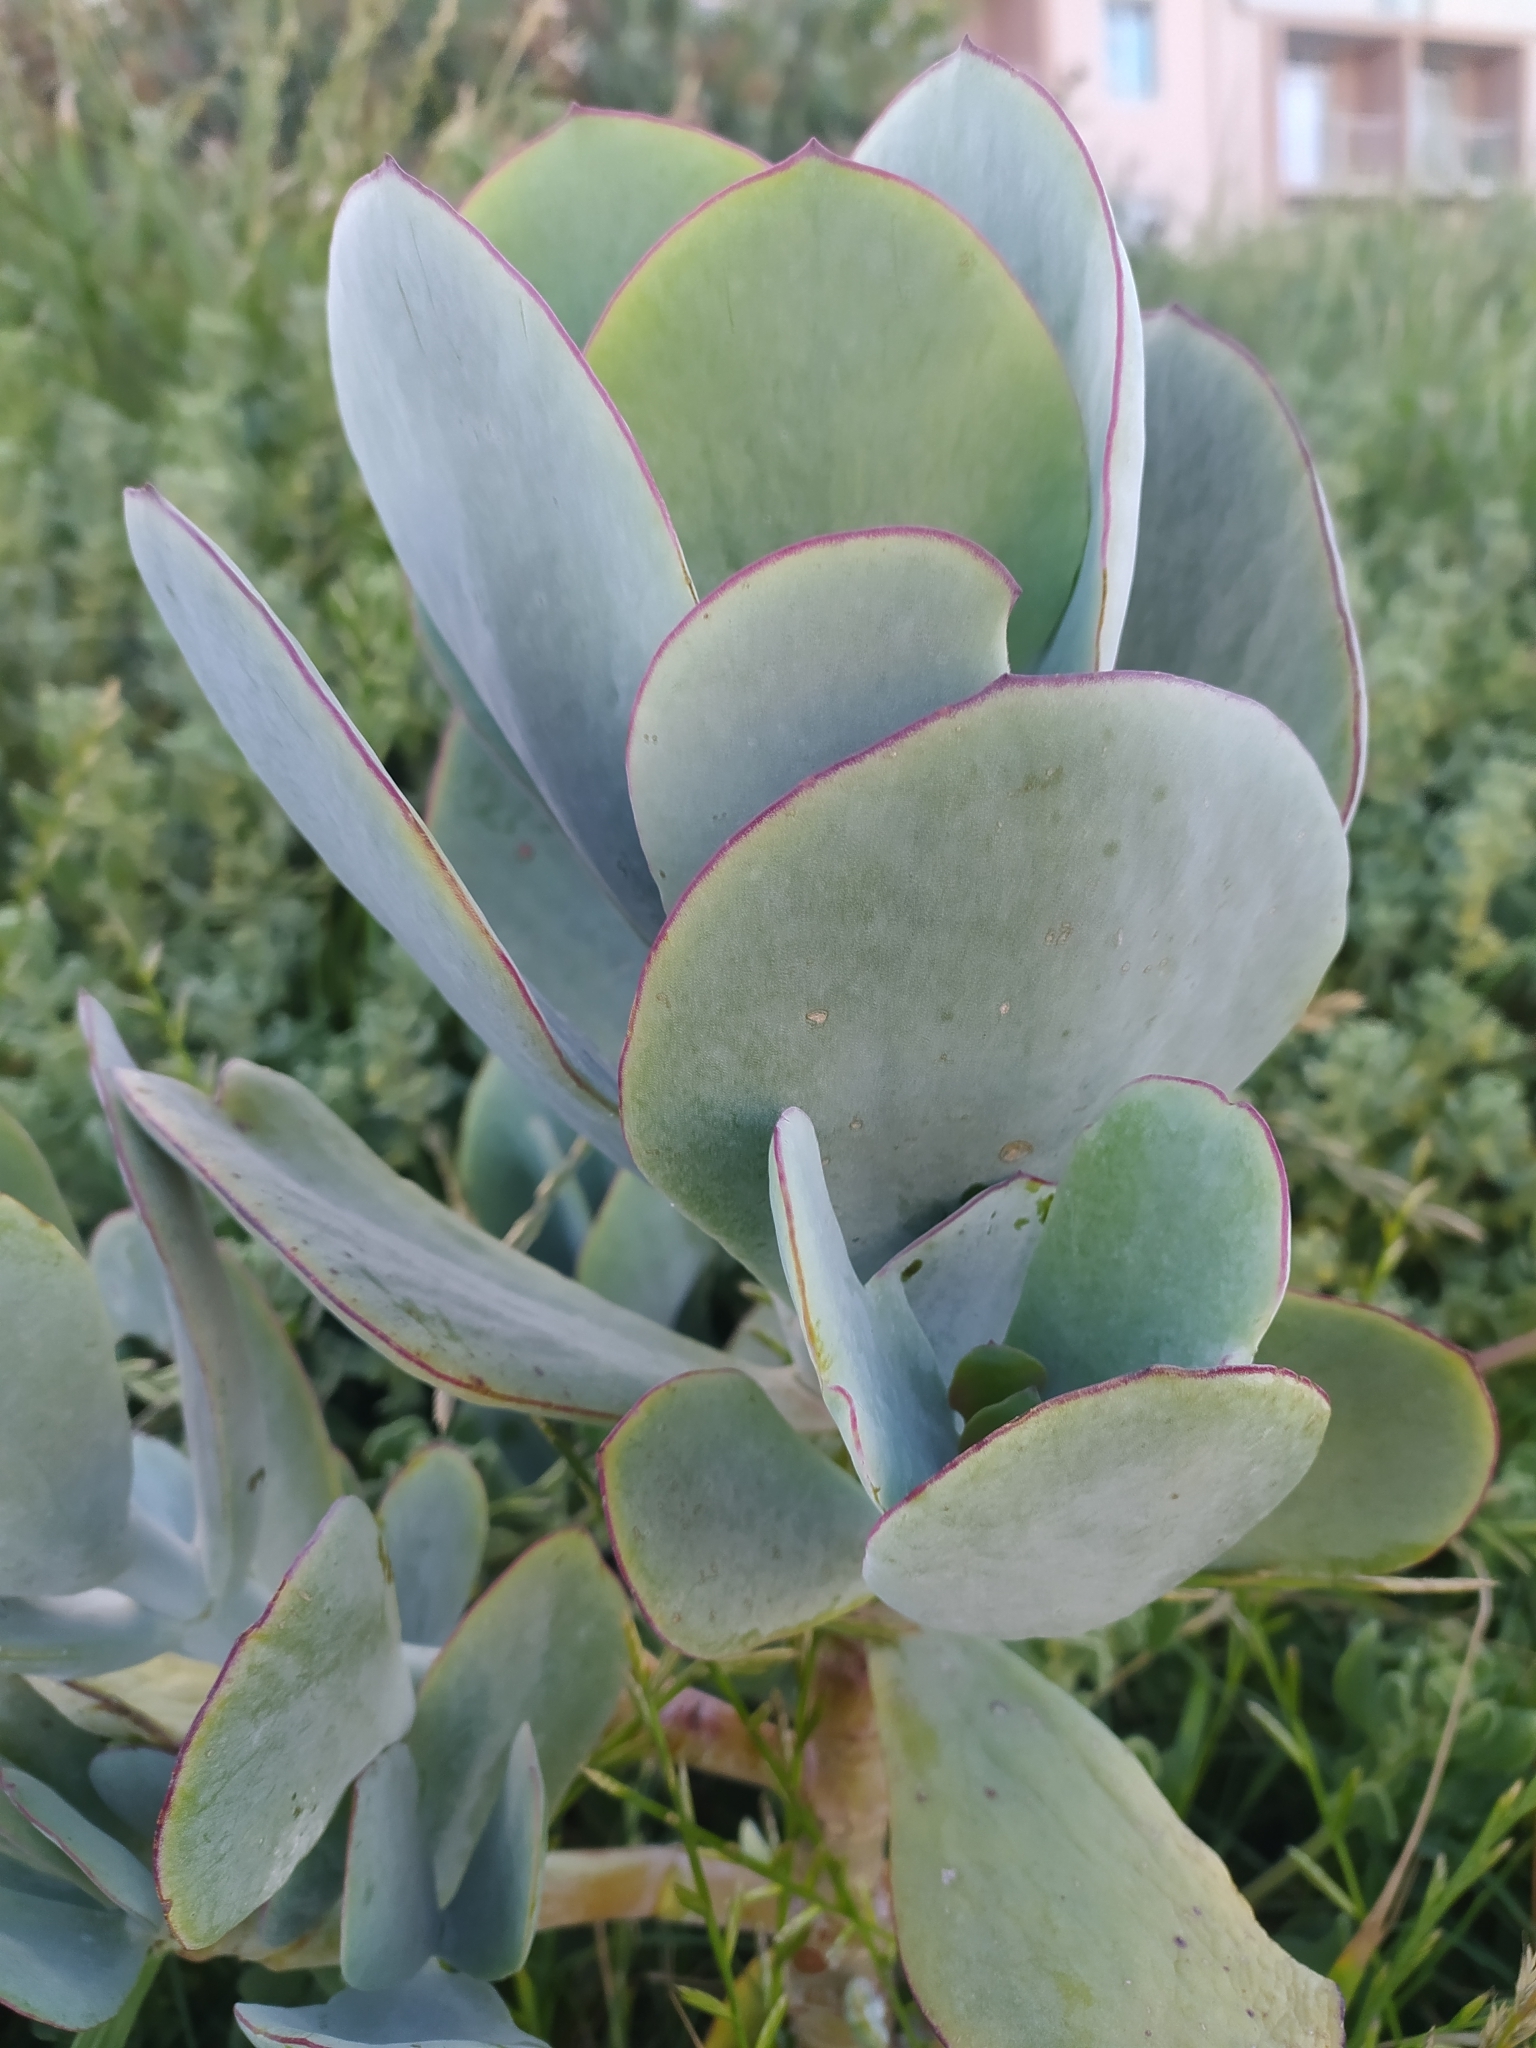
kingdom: Plantae
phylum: Tracheophyta
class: Magnoliopsida
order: Saxifragales
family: Crassulaceae
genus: Cotyledon
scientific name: Cotyledon orbiculata
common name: Pig's ear
